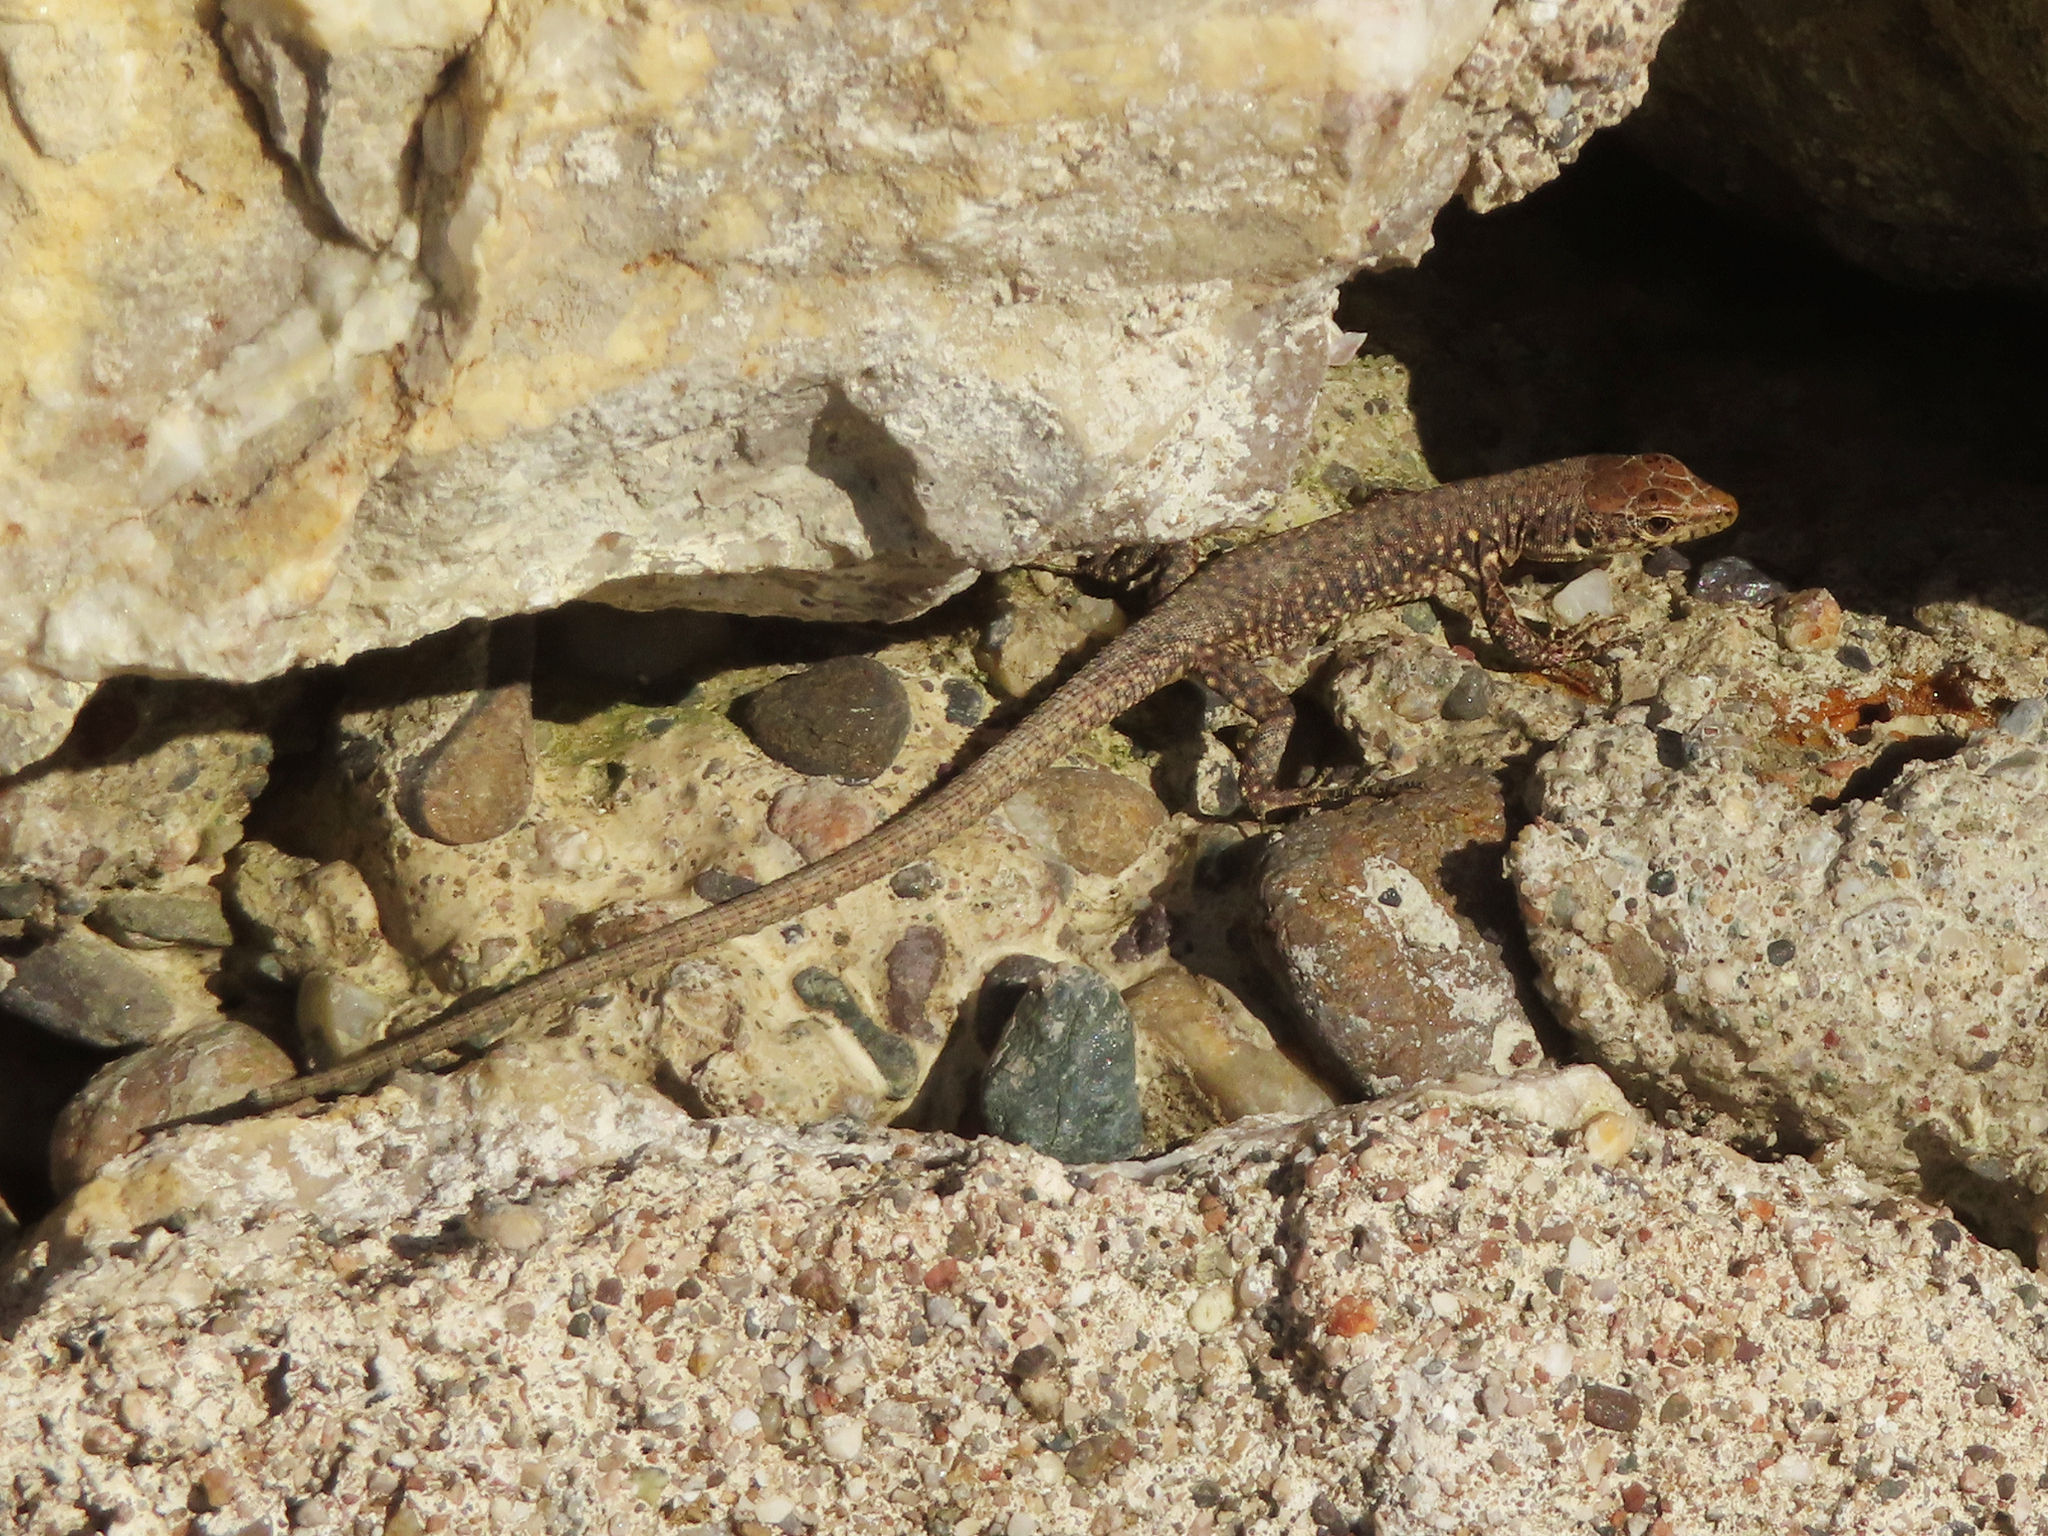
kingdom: Animalia
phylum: Chordata
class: Squamata
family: Lacertidae
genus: Darevskia
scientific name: Darevskia bithynica
